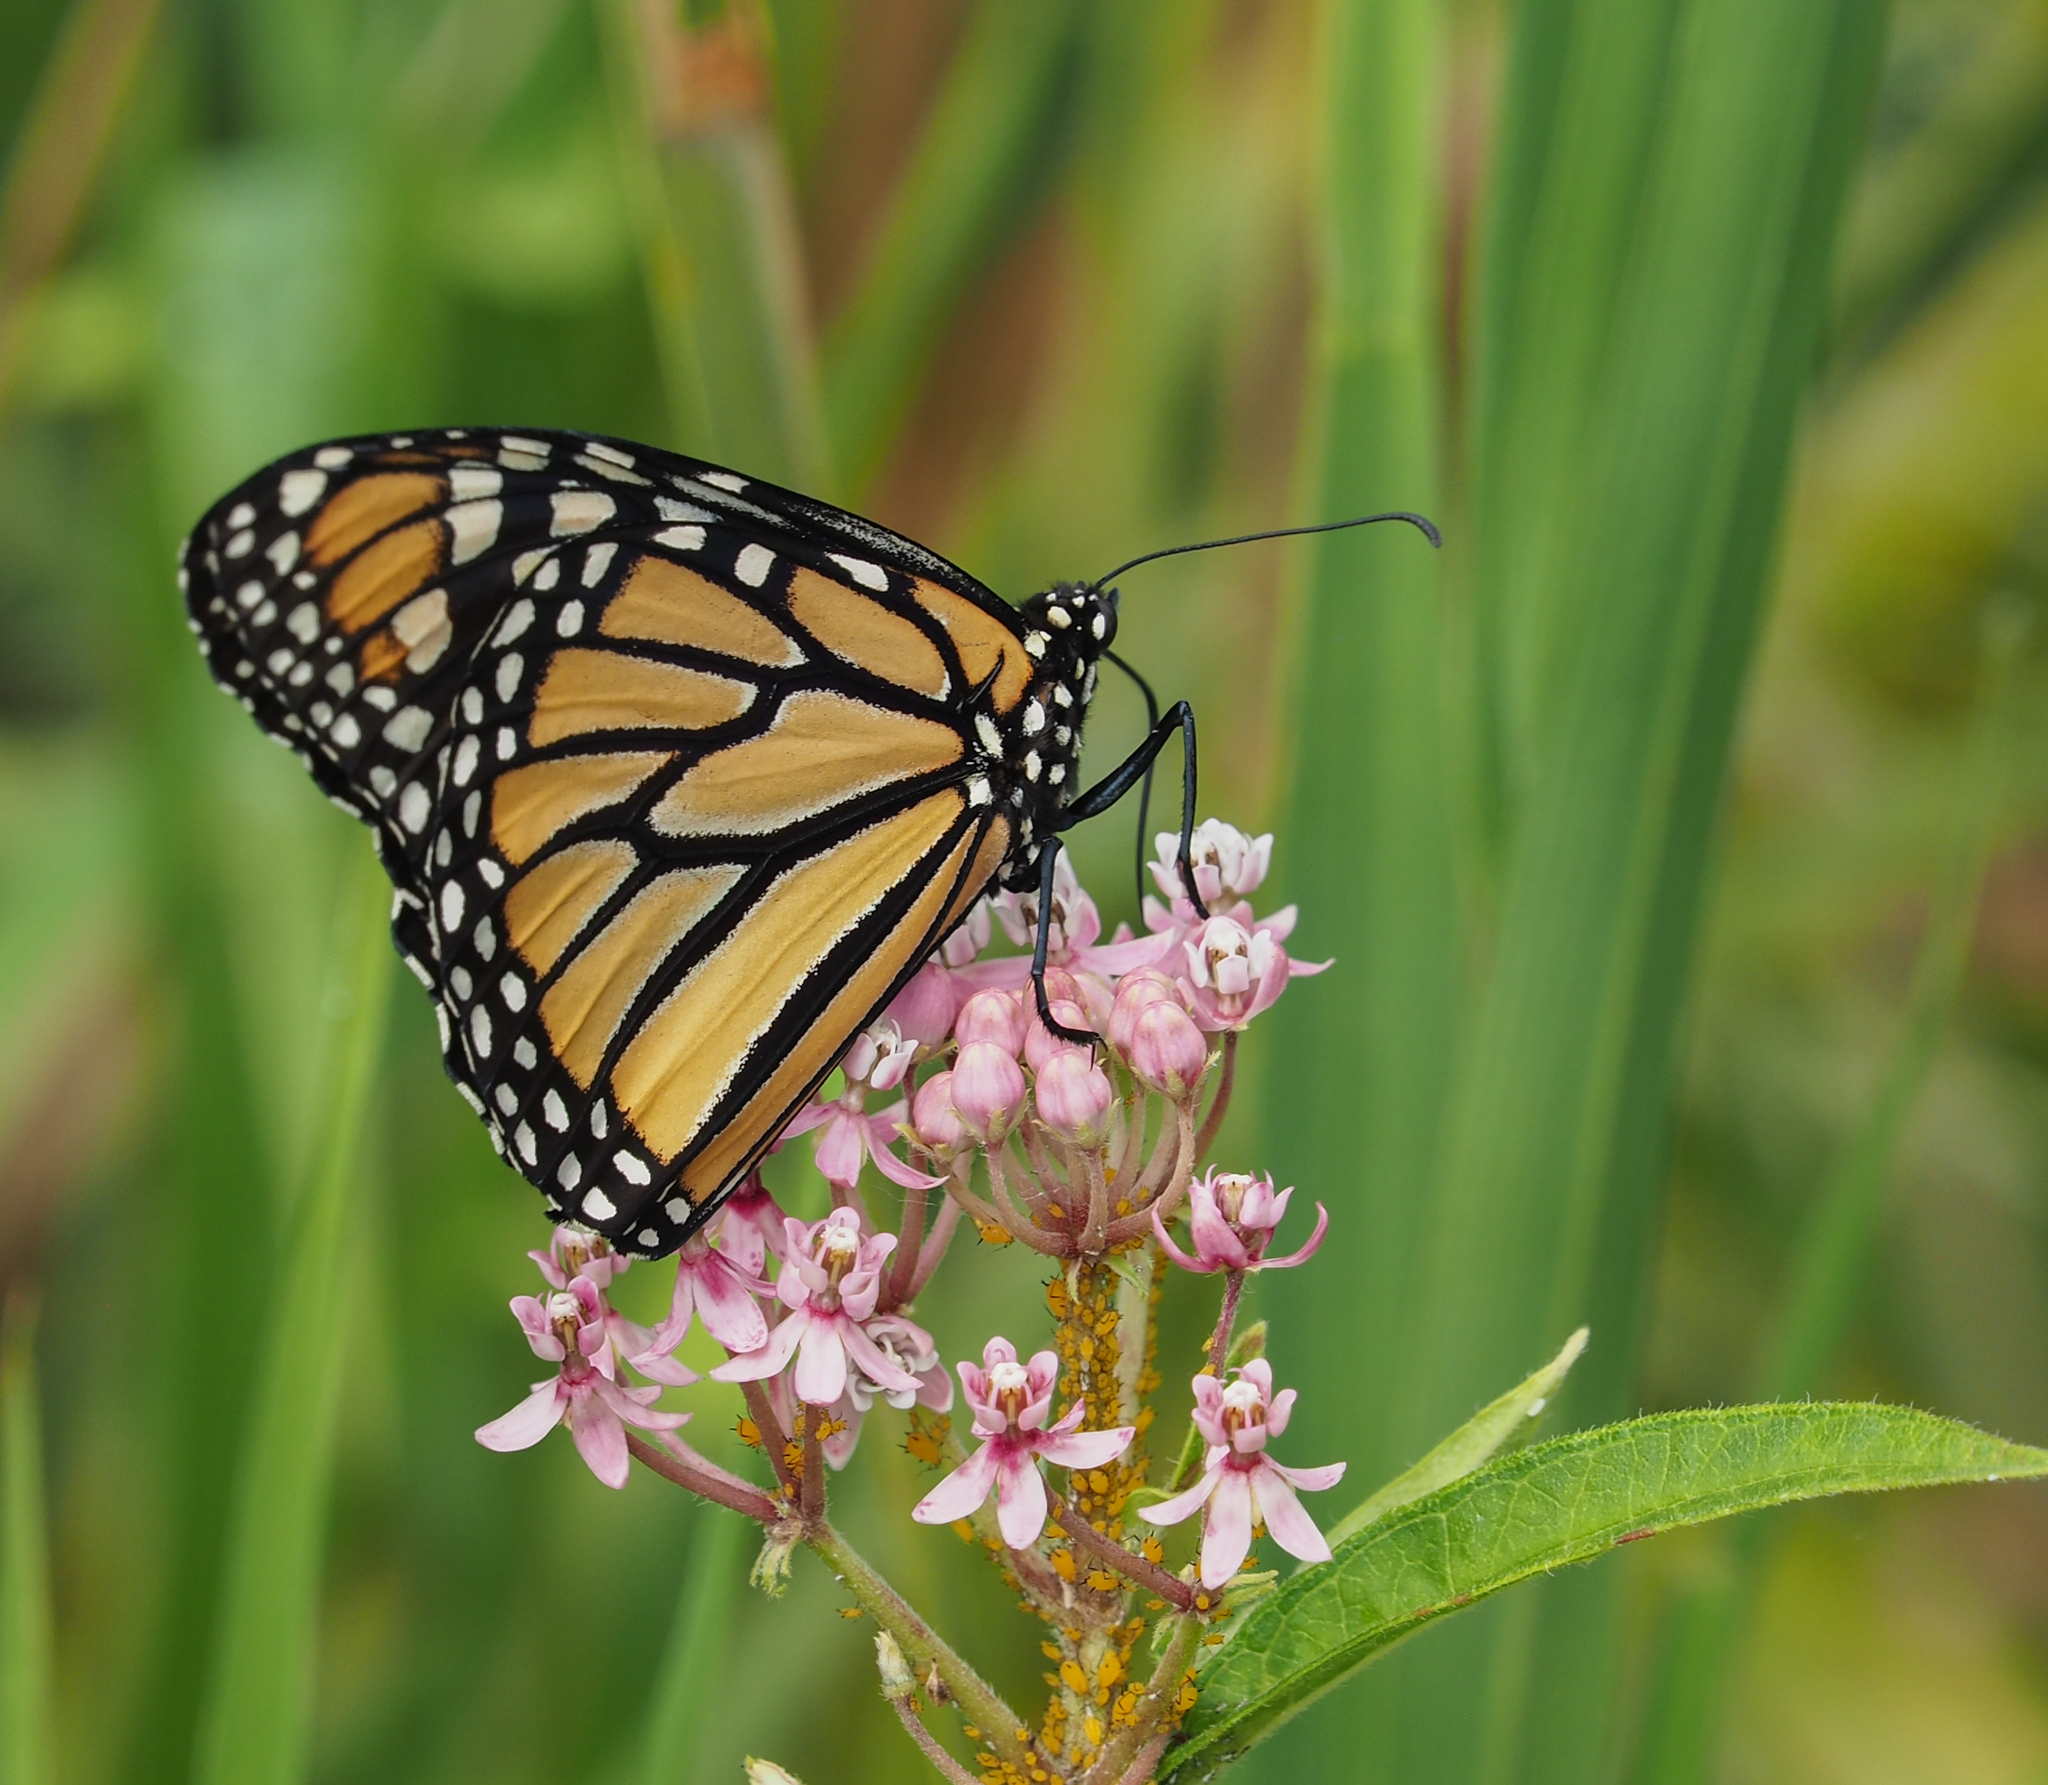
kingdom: Animalia
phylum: Arthropoda
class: Insecta
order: Lepidoptera
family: Nymphalidae
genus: Danaus
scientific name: Danaus plexippus
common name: Monarch
